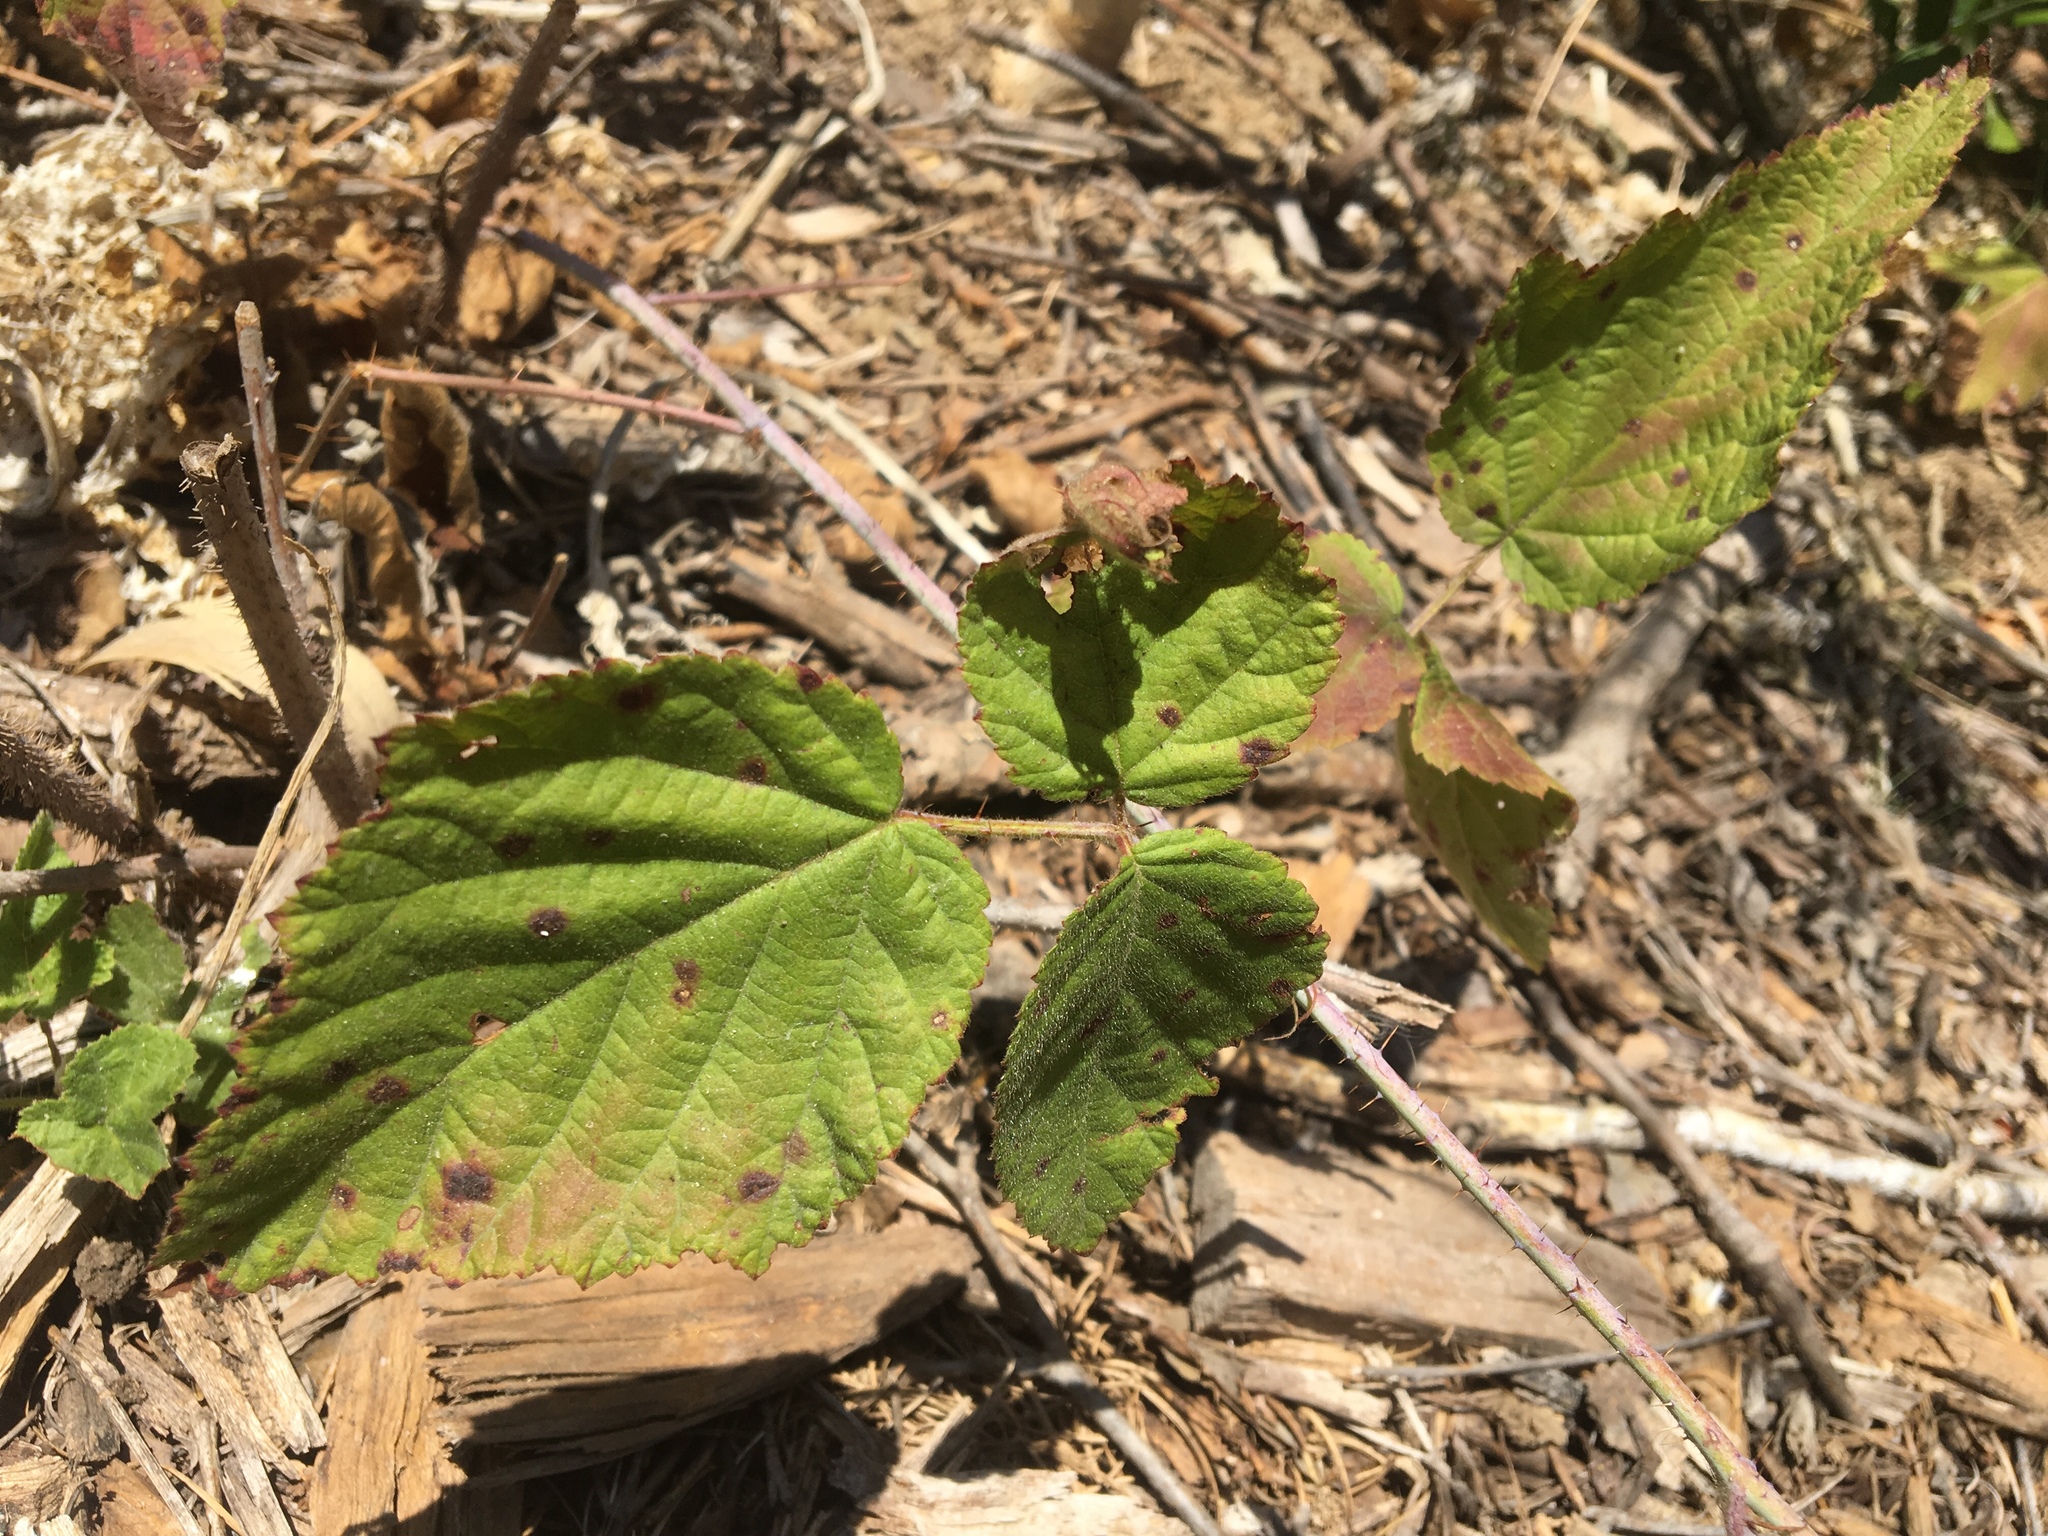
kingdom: Plantae
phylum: Tracheophyta
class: Magnoliopsida
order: Rosales
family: Rosaceae
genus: Rubus
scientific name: Rubus ursinus
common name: Pacific blackberry
